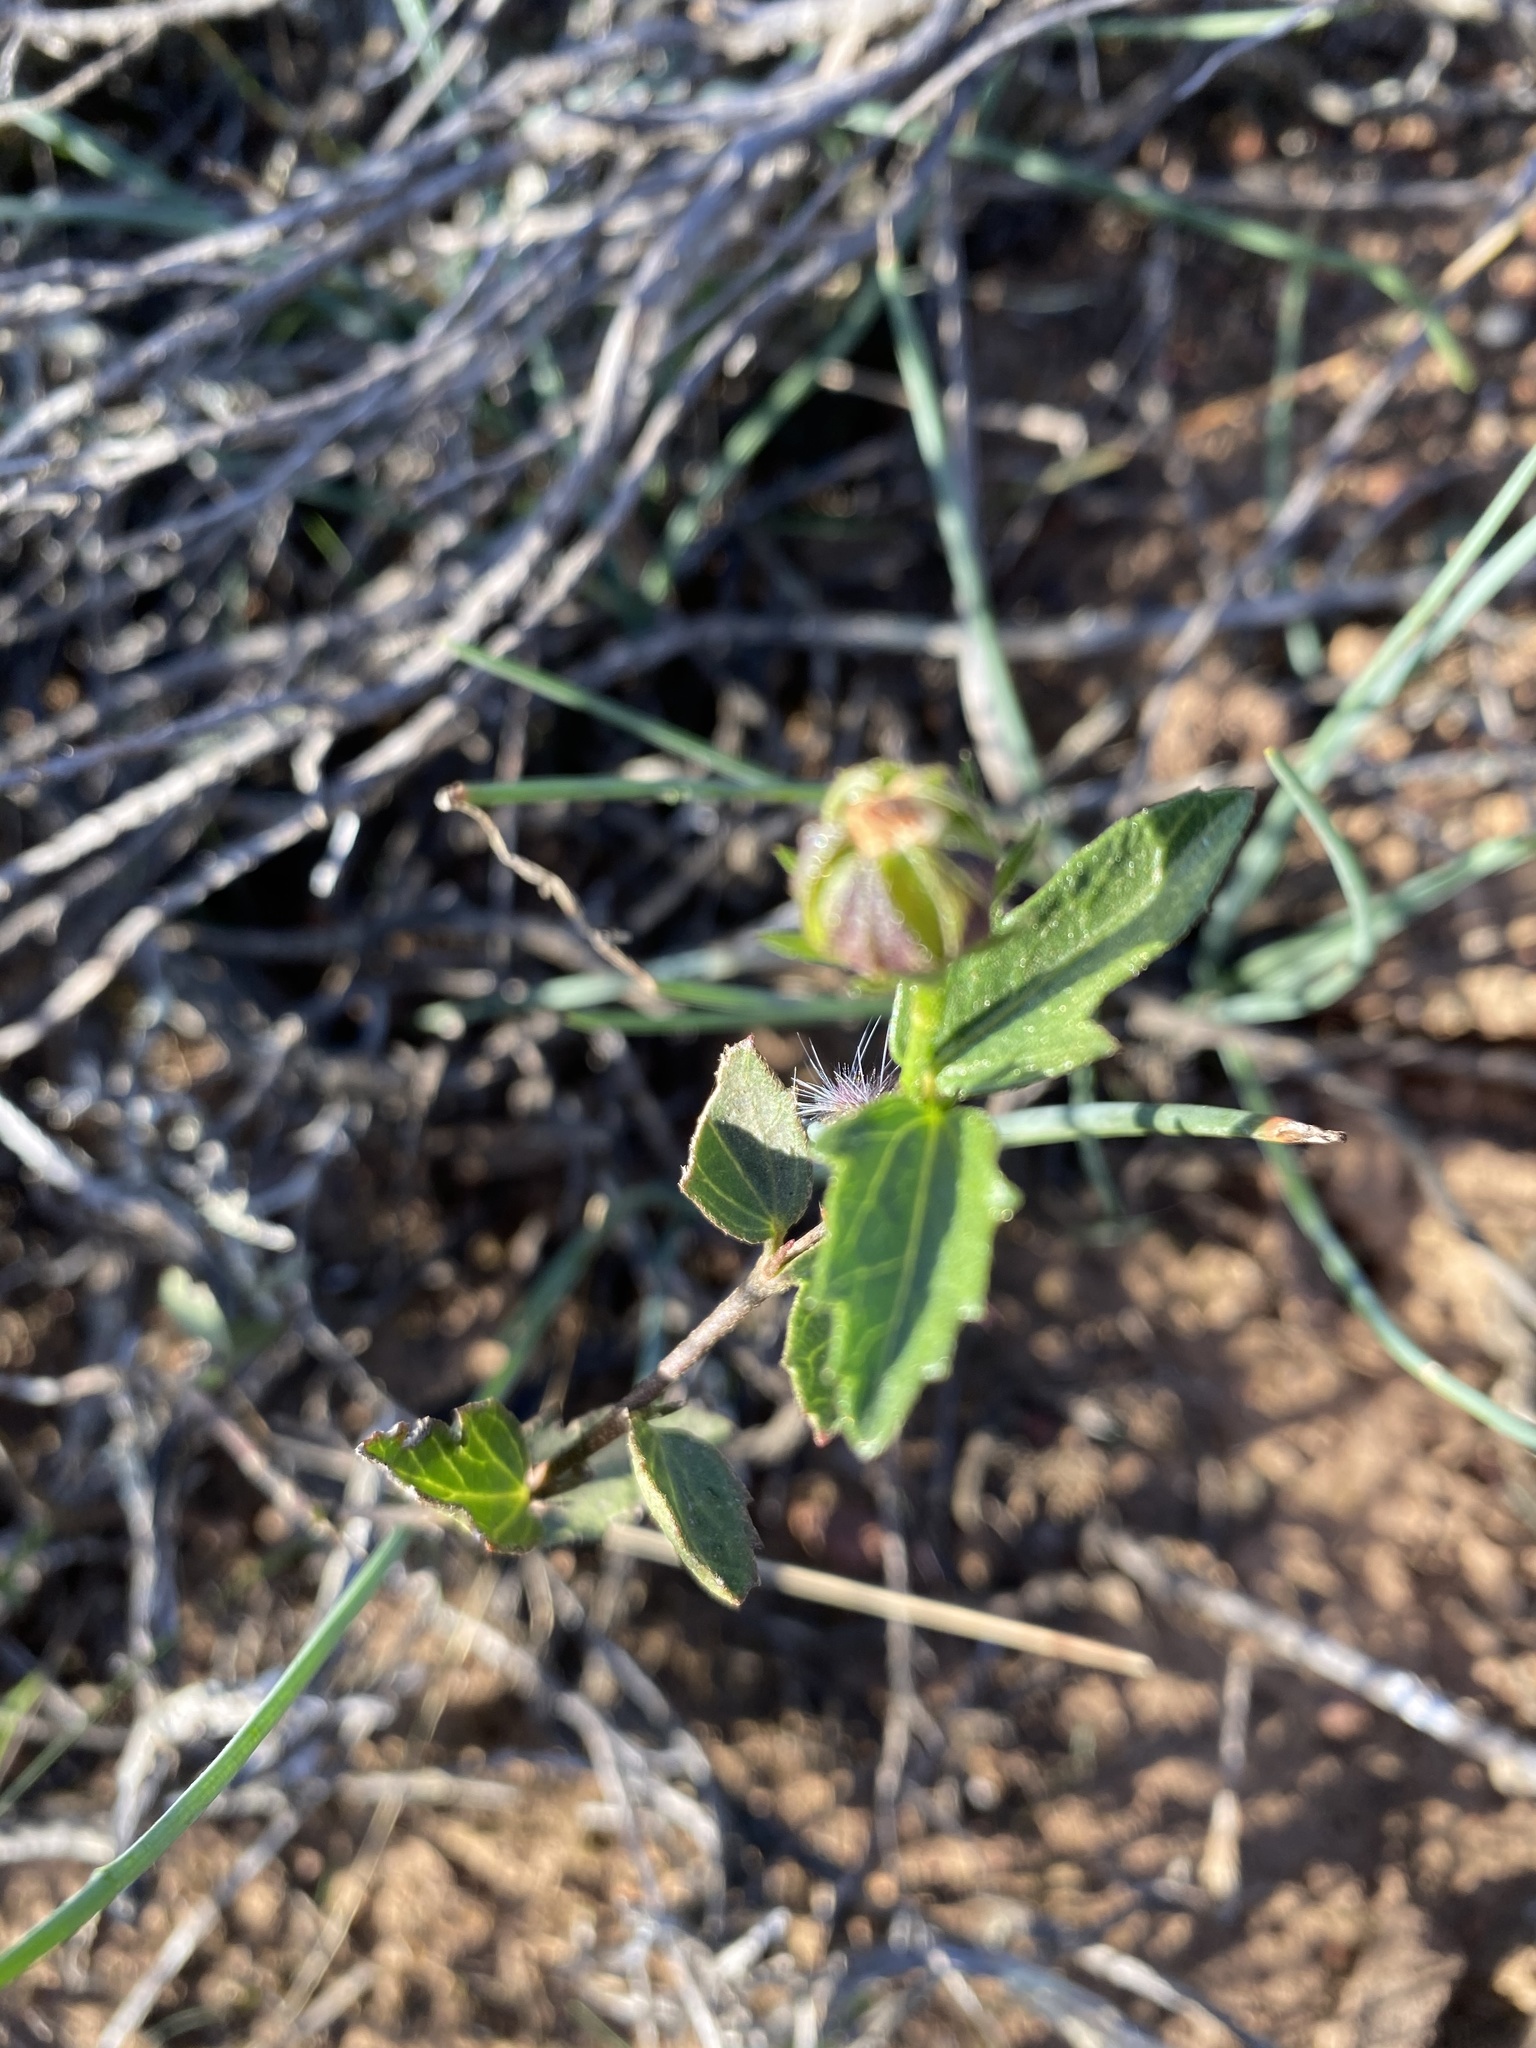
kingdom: Plantae
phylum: Tracheophyta
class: Magnoliopsida
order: Malvales
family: Malvaceae
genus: Hibiscus
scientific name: Hibiscus pusillus
